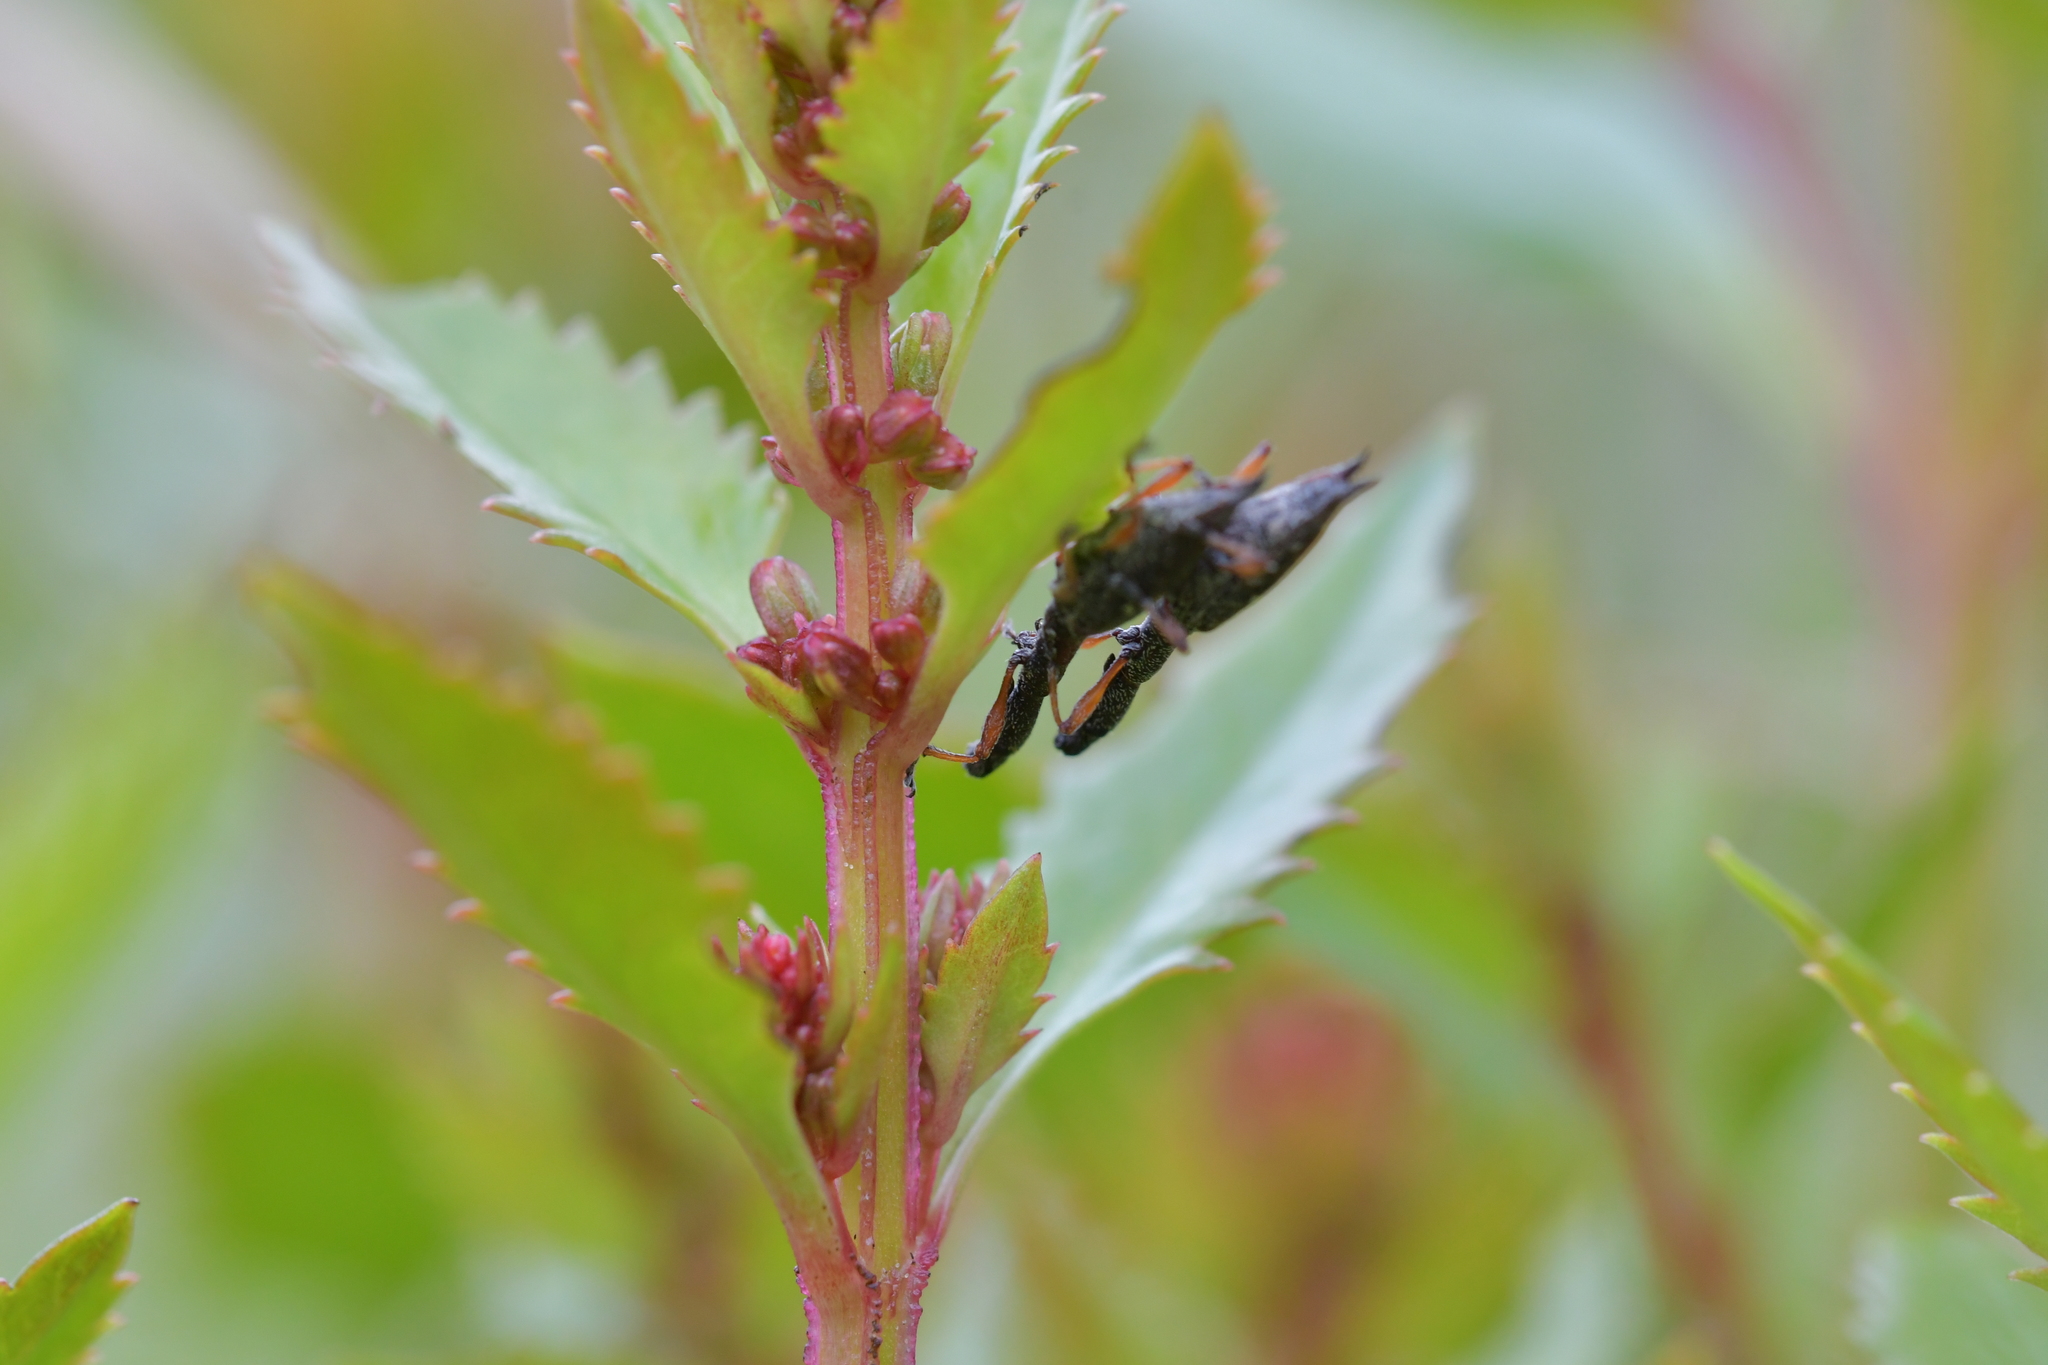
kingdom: Animalia
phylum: Arthropoda
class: Insecta
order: Coleoptera
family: Curculionidae
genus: Rhadinosomus
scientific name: Rhadinosomus acuminatus
